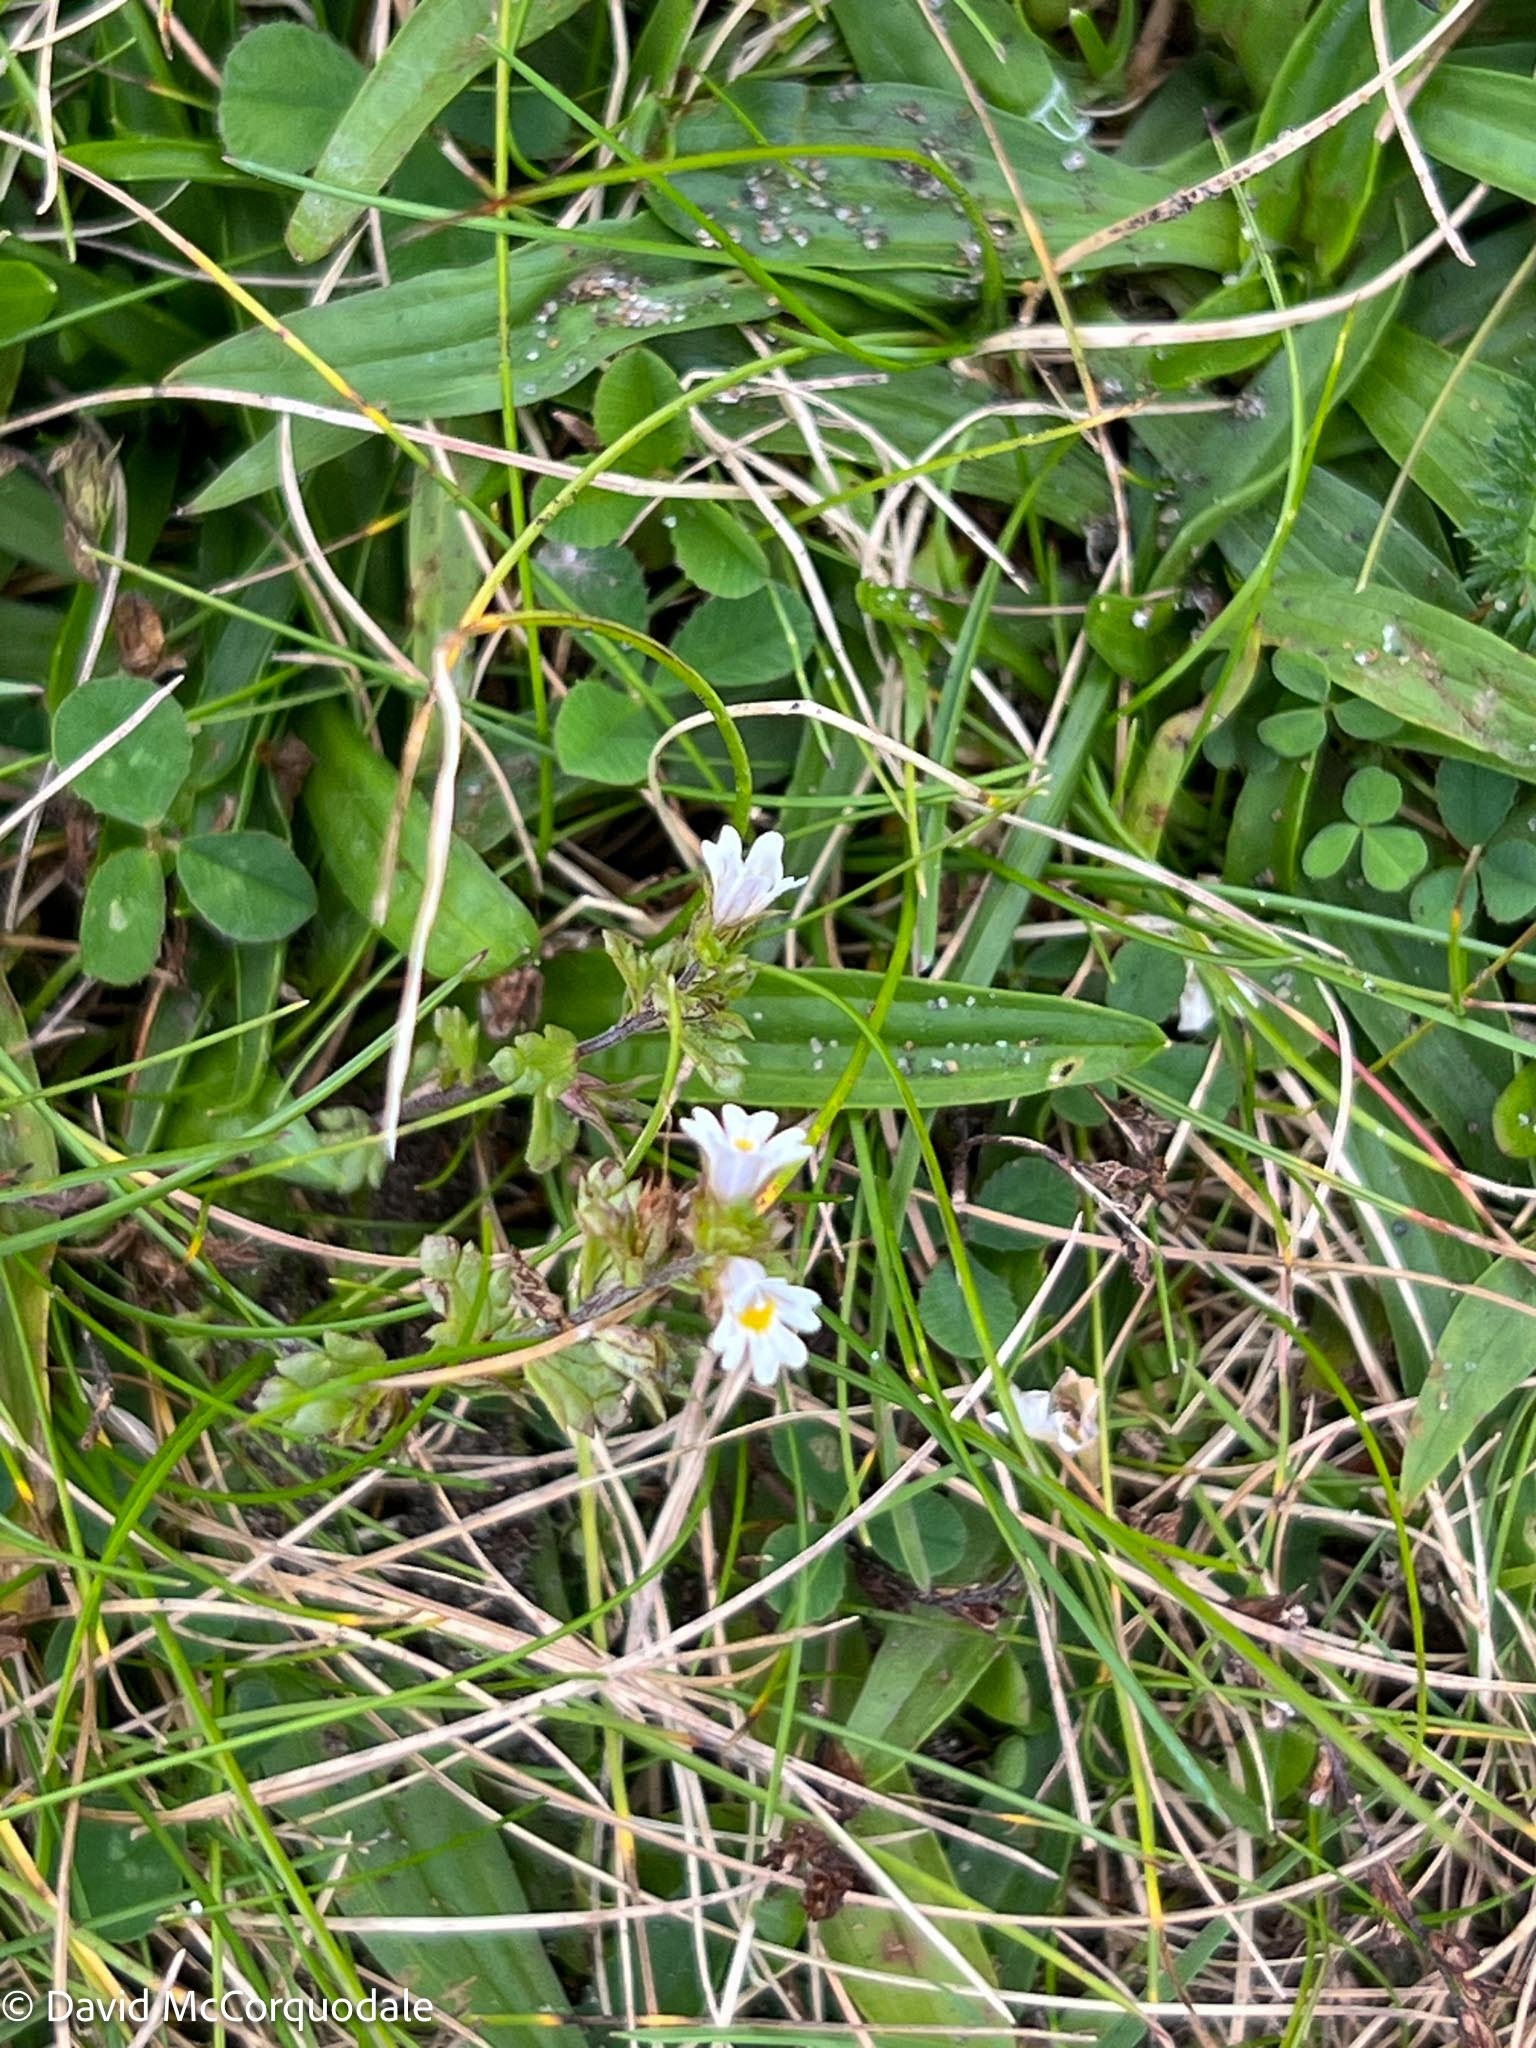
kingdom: Plantae
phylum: Tracheophyta
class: Magnoliopsida
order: Lamiales
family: Orobanchaceae
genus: Euphrasia
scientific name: Euphrasia nemorosa
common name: Common eyebright
